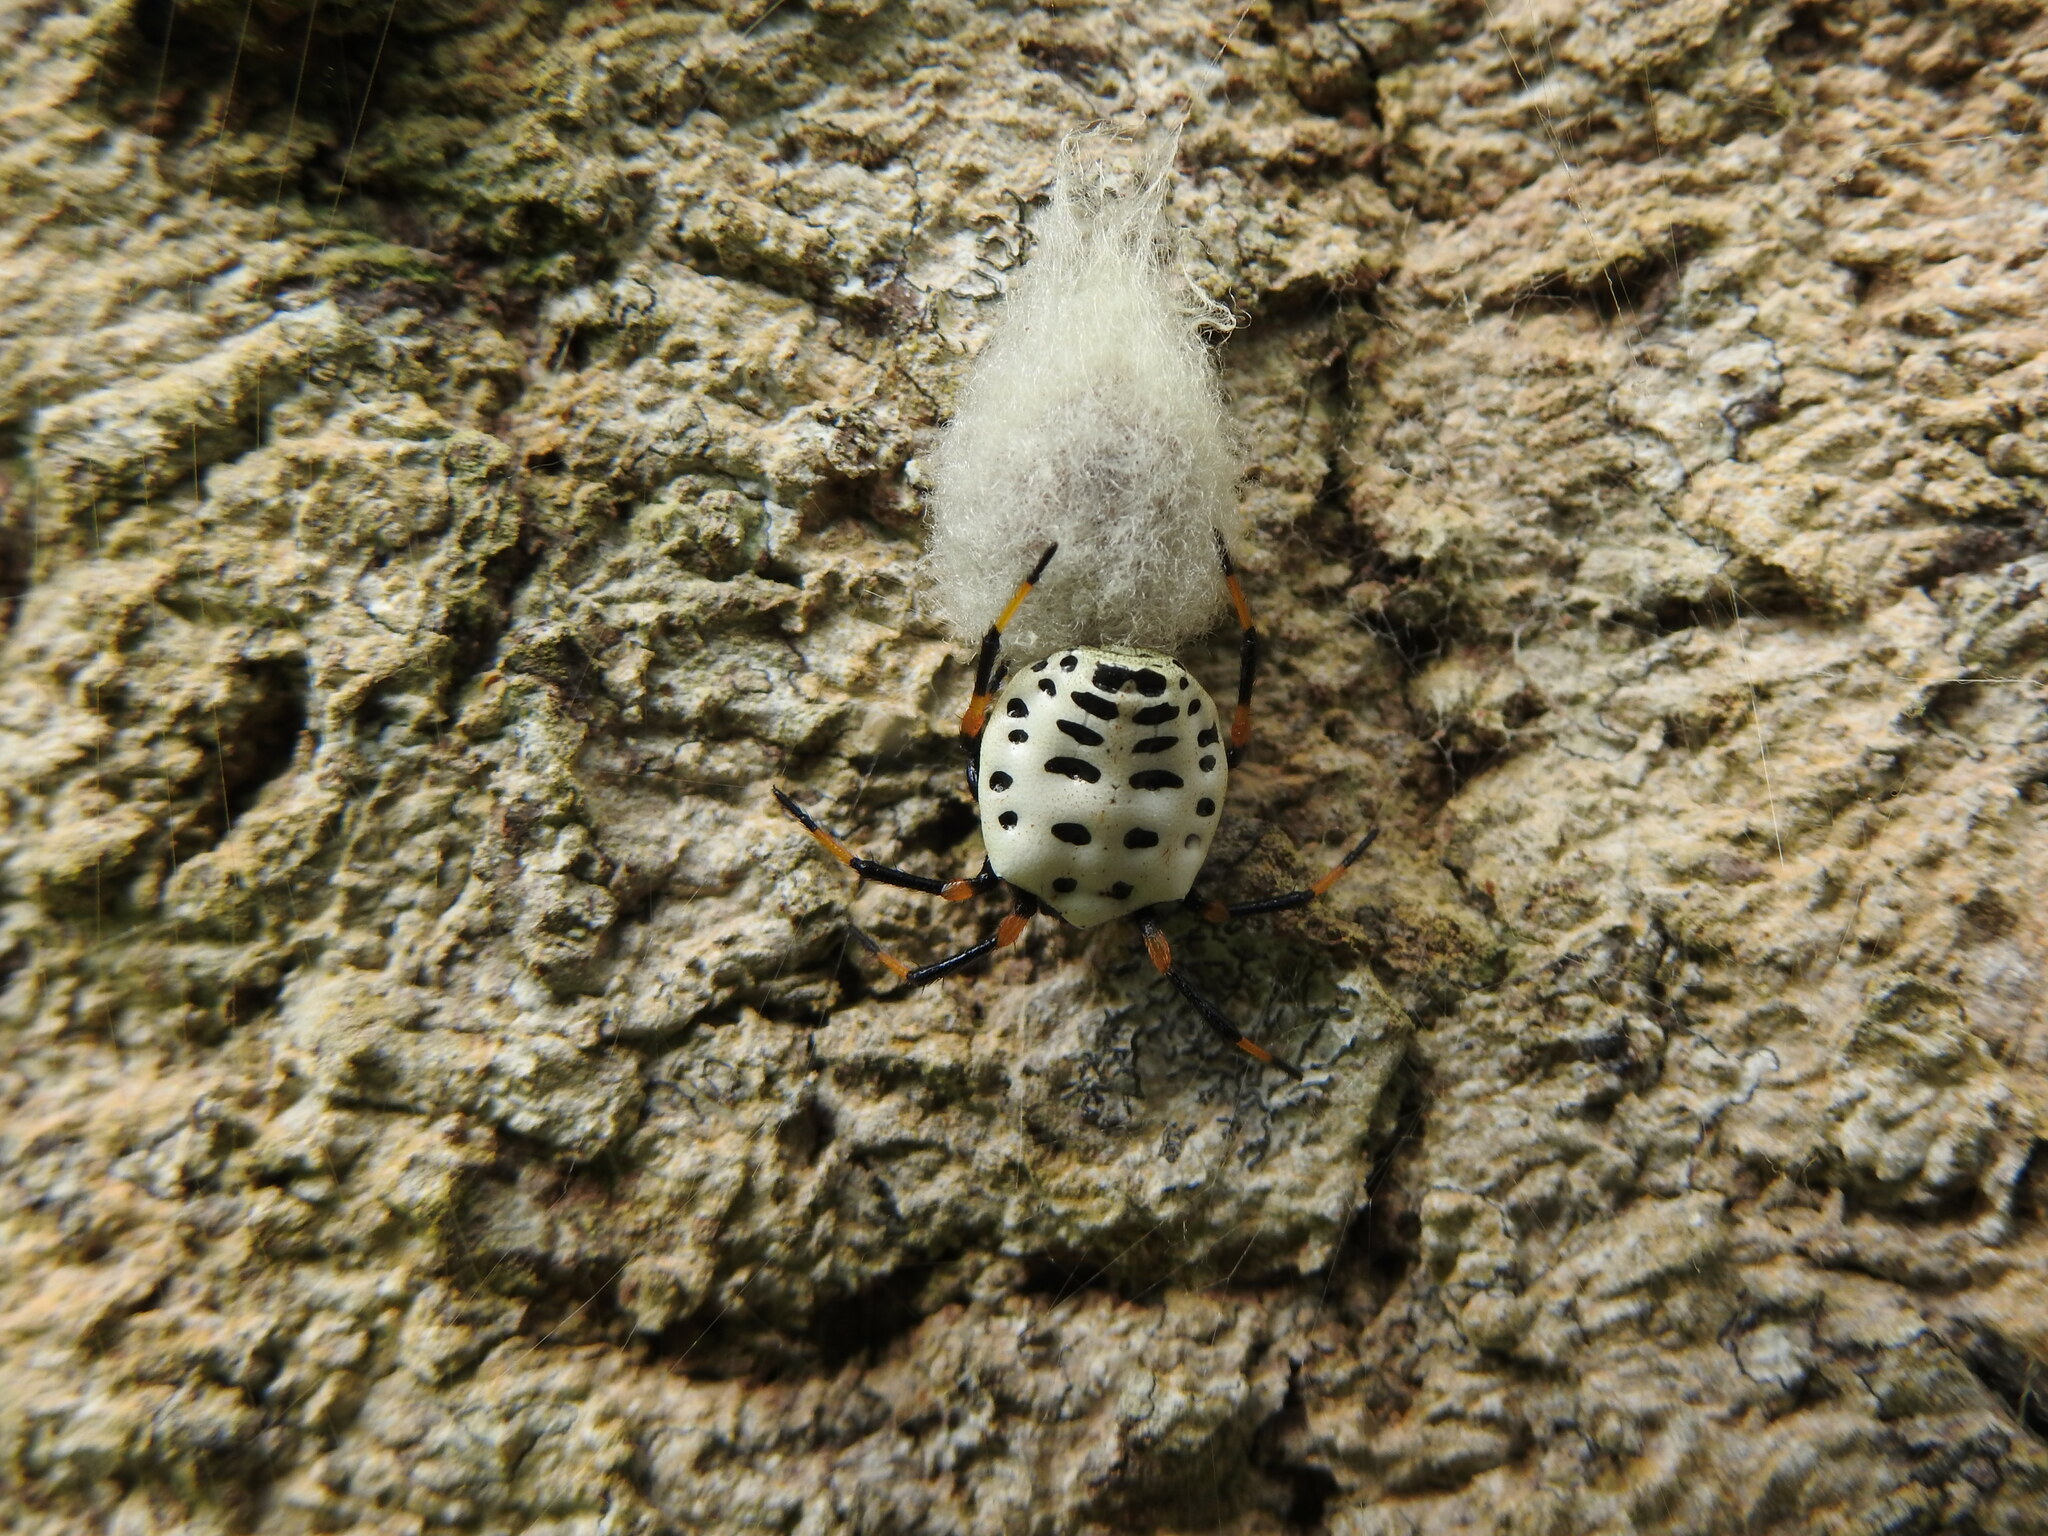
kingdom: Animalia
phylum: Arthropoda
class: Arachnida
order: Araneae
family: Araneidae
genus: Alpaida
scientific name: Alpaida tabula
